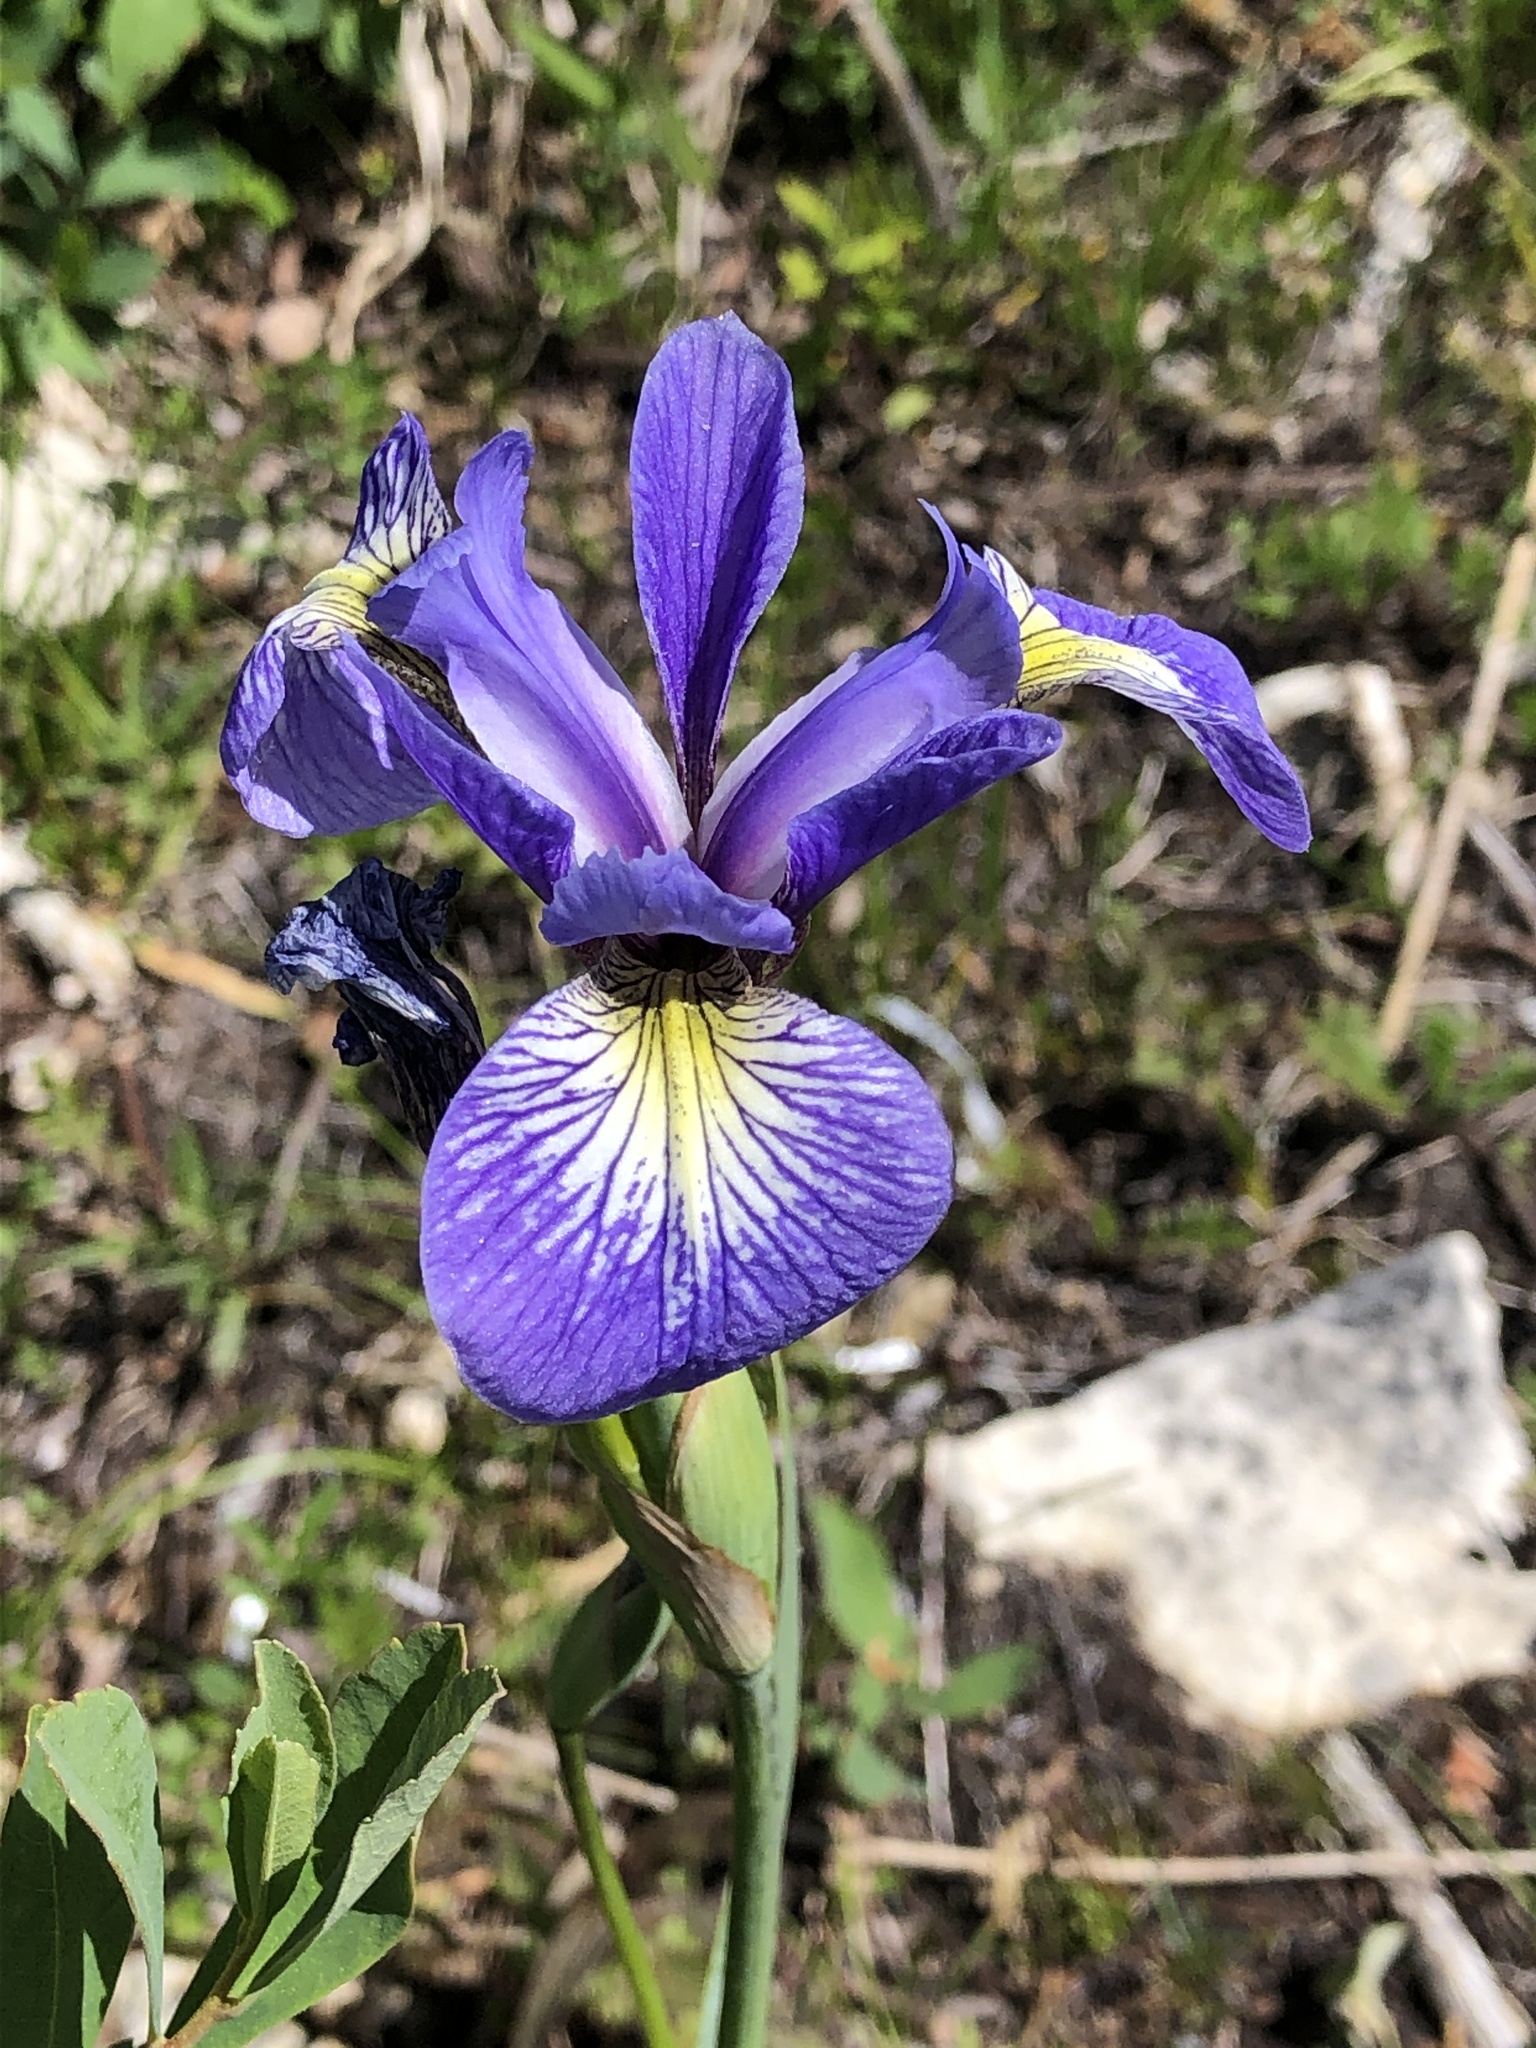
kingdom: Plantae
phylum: Tracheophyta
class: Liliopsida
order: Asparagales
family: Iridaceae
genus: Iris
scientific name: Iris versicolor
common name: Purple iris
